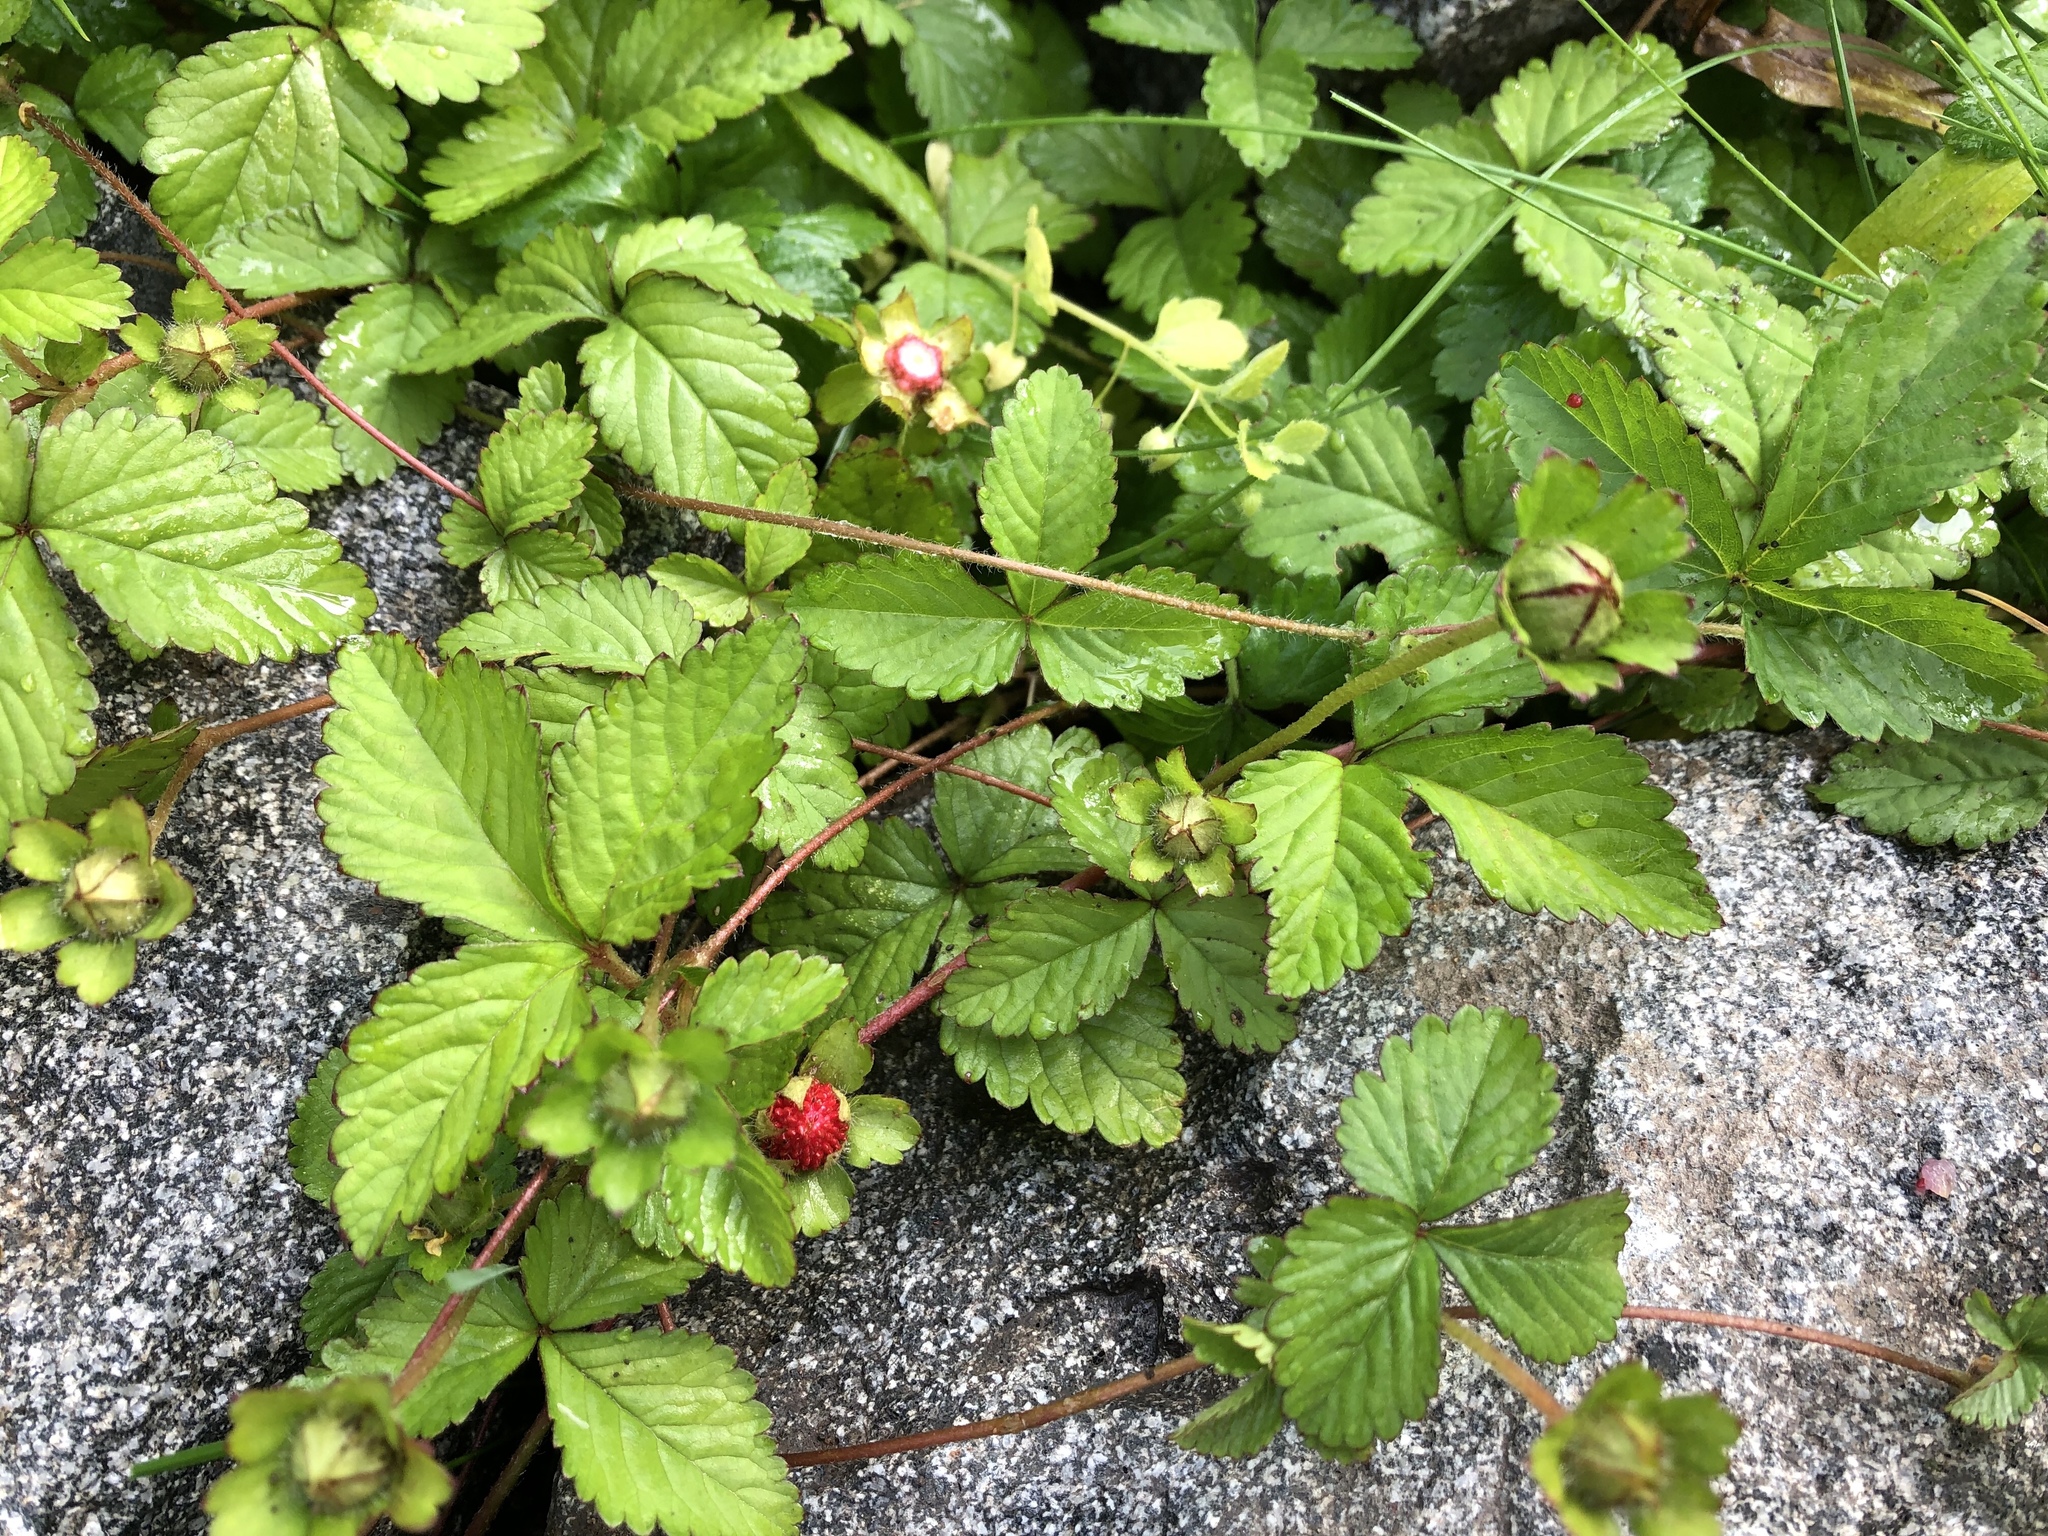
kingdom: Plantae
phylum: Tracheophyta
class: Magnoliopsida
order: Rosales
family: Rosaceae
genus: Potentilla
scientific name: Potentilla indica
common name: Yellow-flowered strawberry
